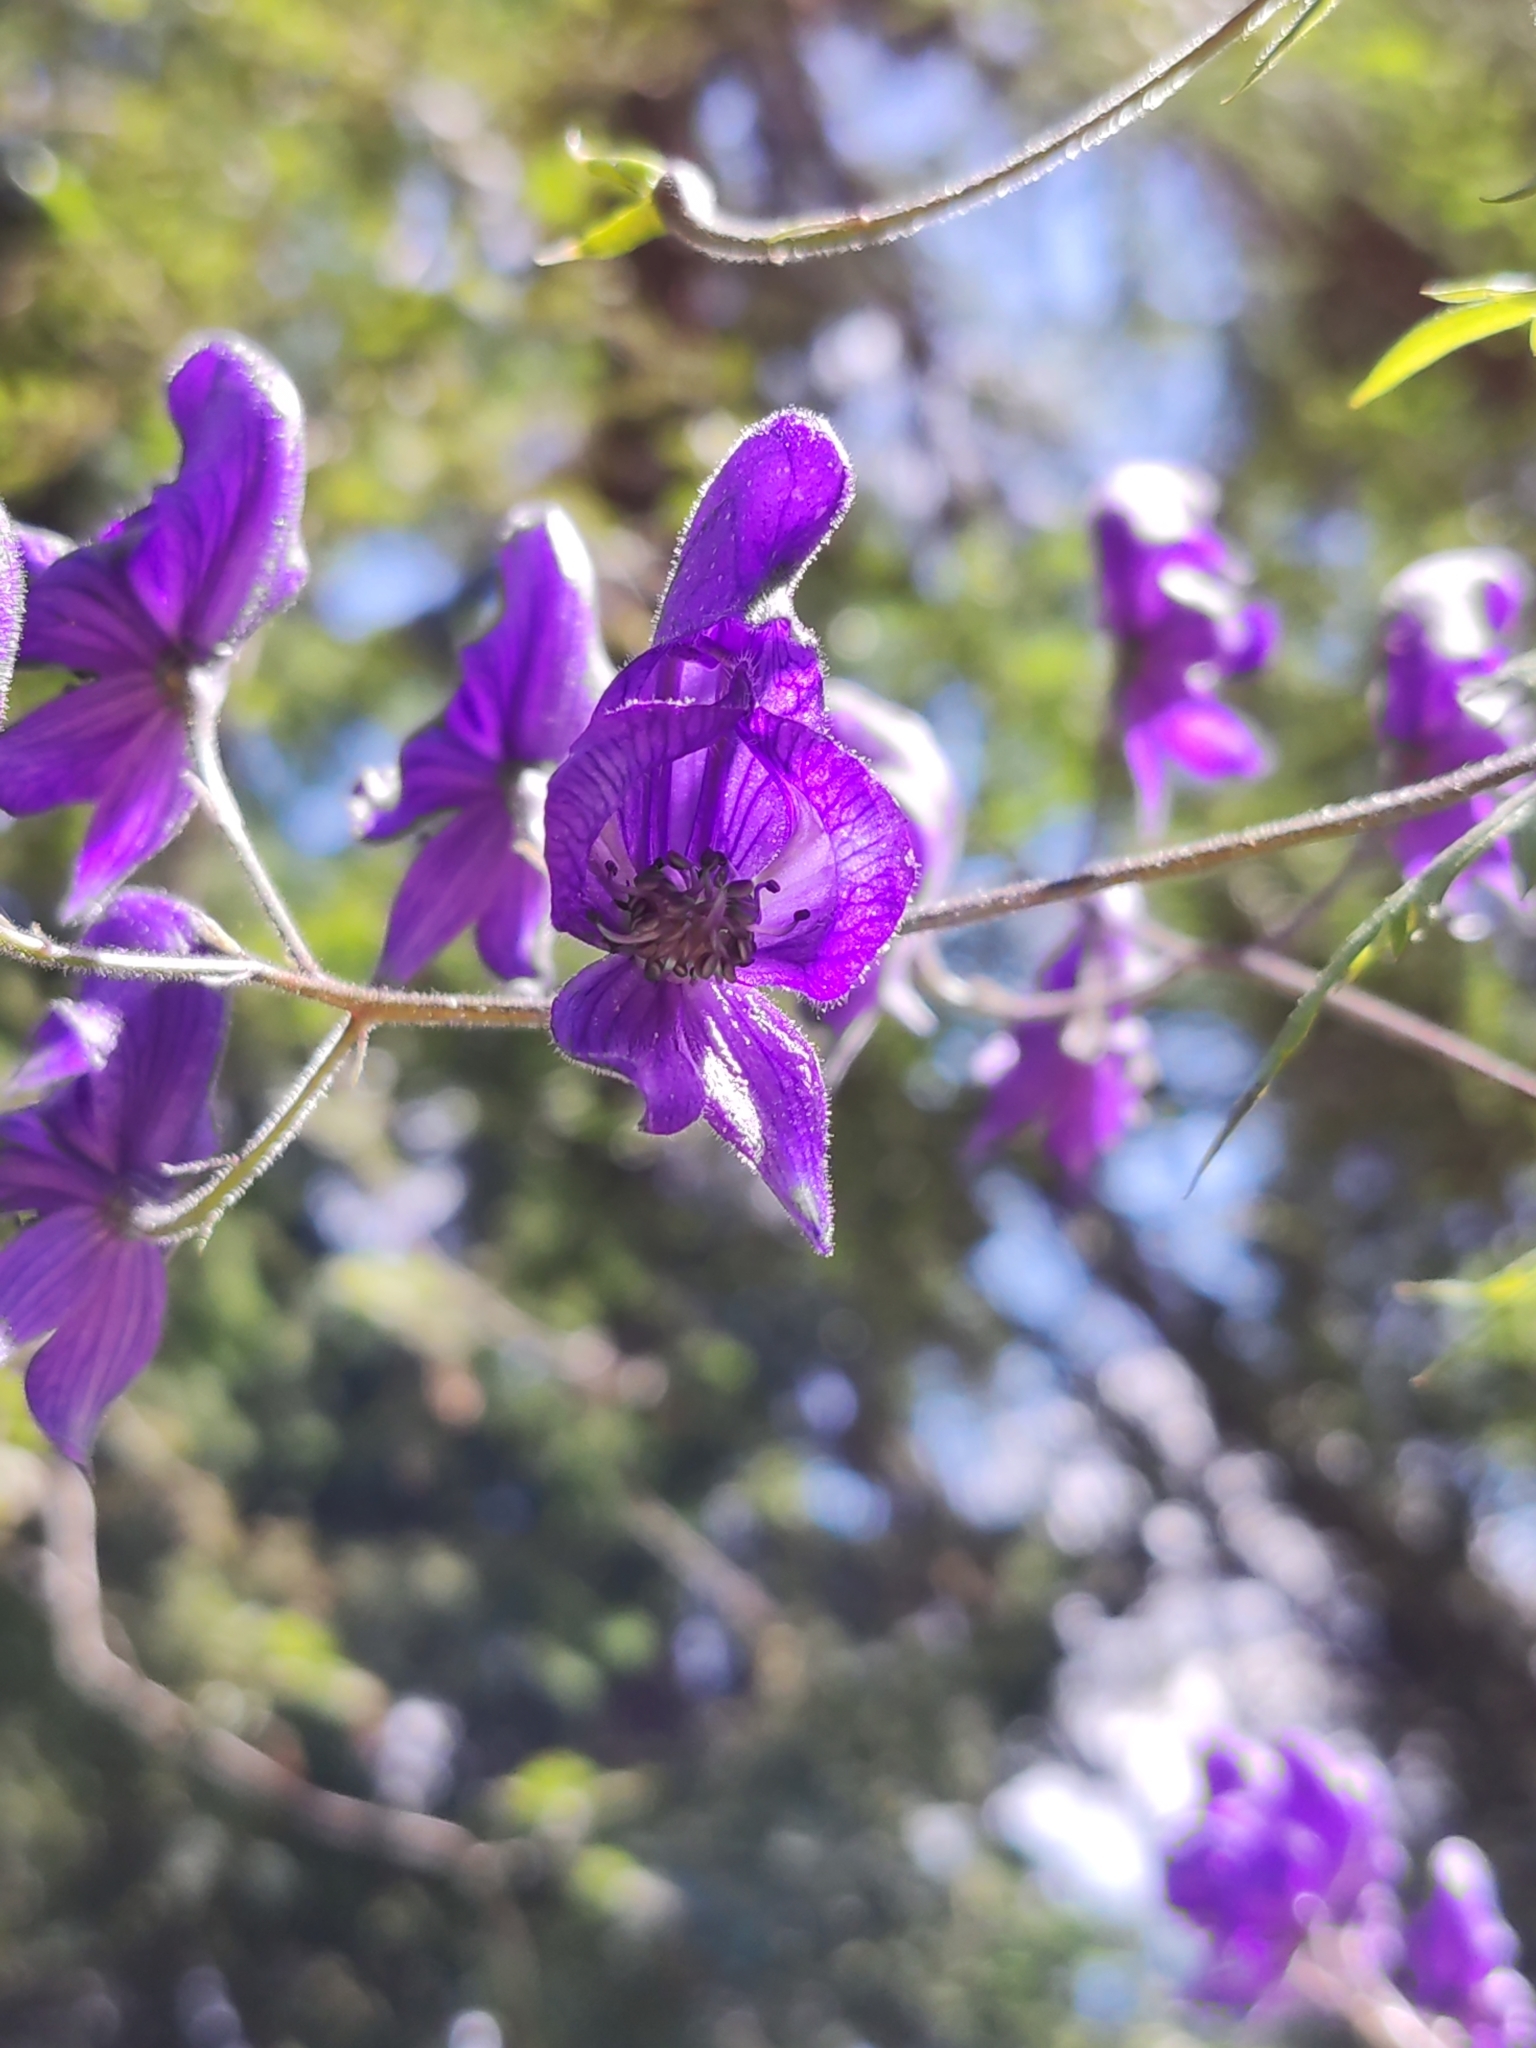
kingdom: Plantae
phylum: Tracheophyta
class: Magnoliopsida
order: Ranunculales
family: Ranunculaceae
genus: Aconitum
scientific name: Aconitum degenii
